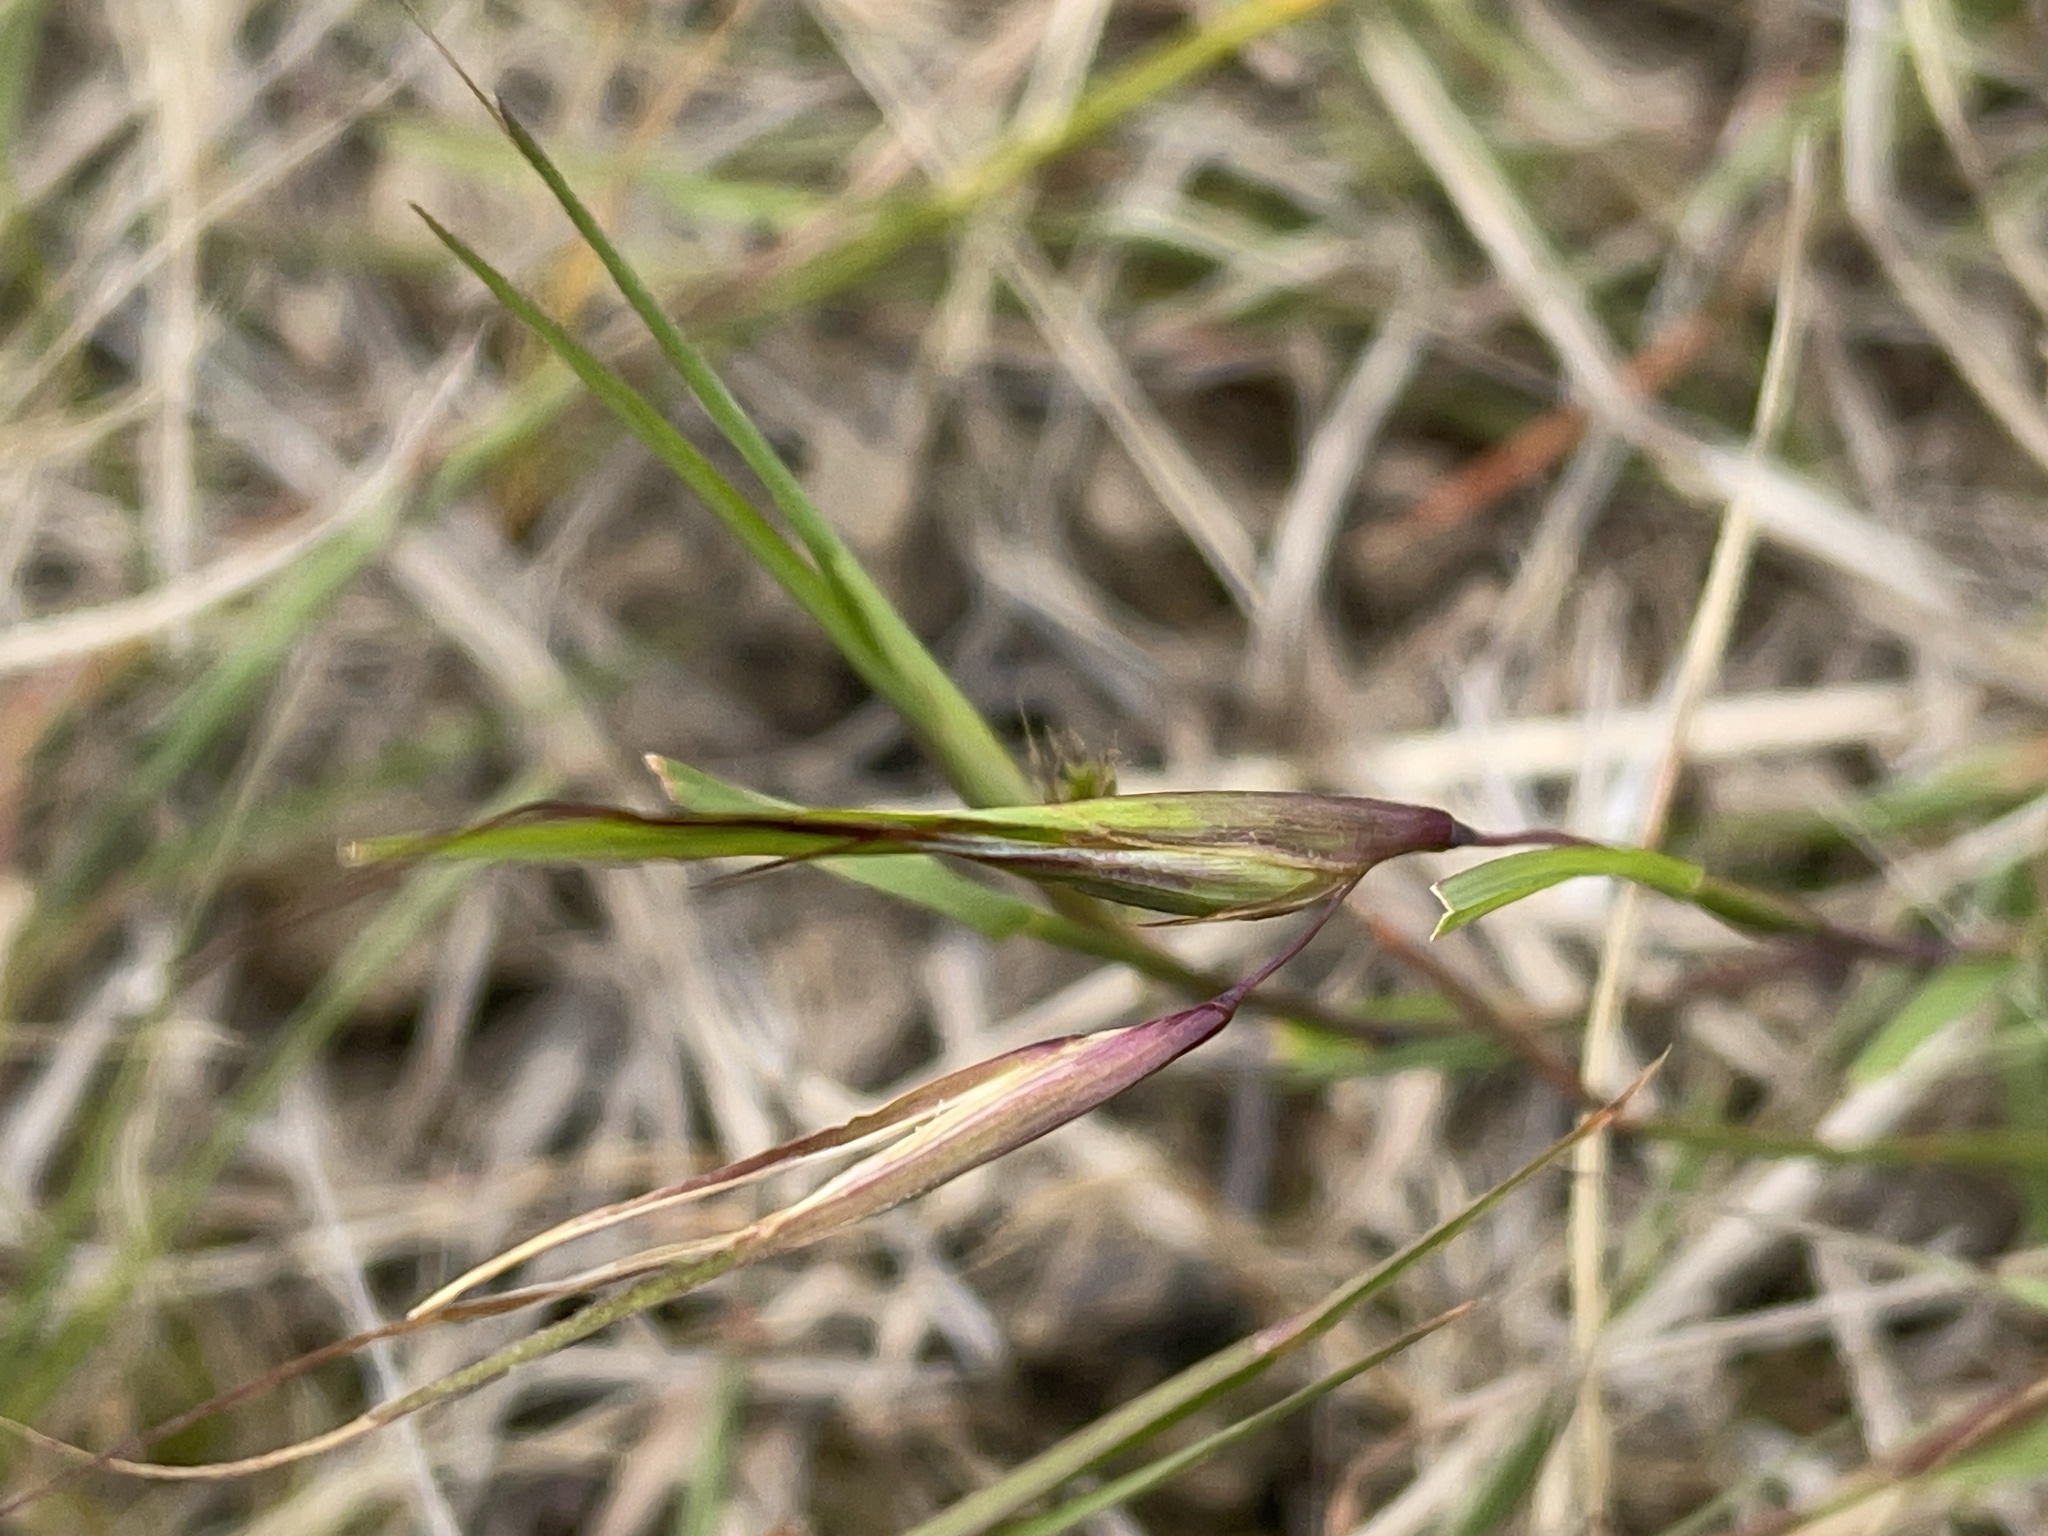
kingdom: Plantae
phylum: Tracheophyta
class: Liliopsida
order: Poales
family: Poaceae
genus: Themeda
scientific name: Themeda triandra
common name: Kangaroo grass
